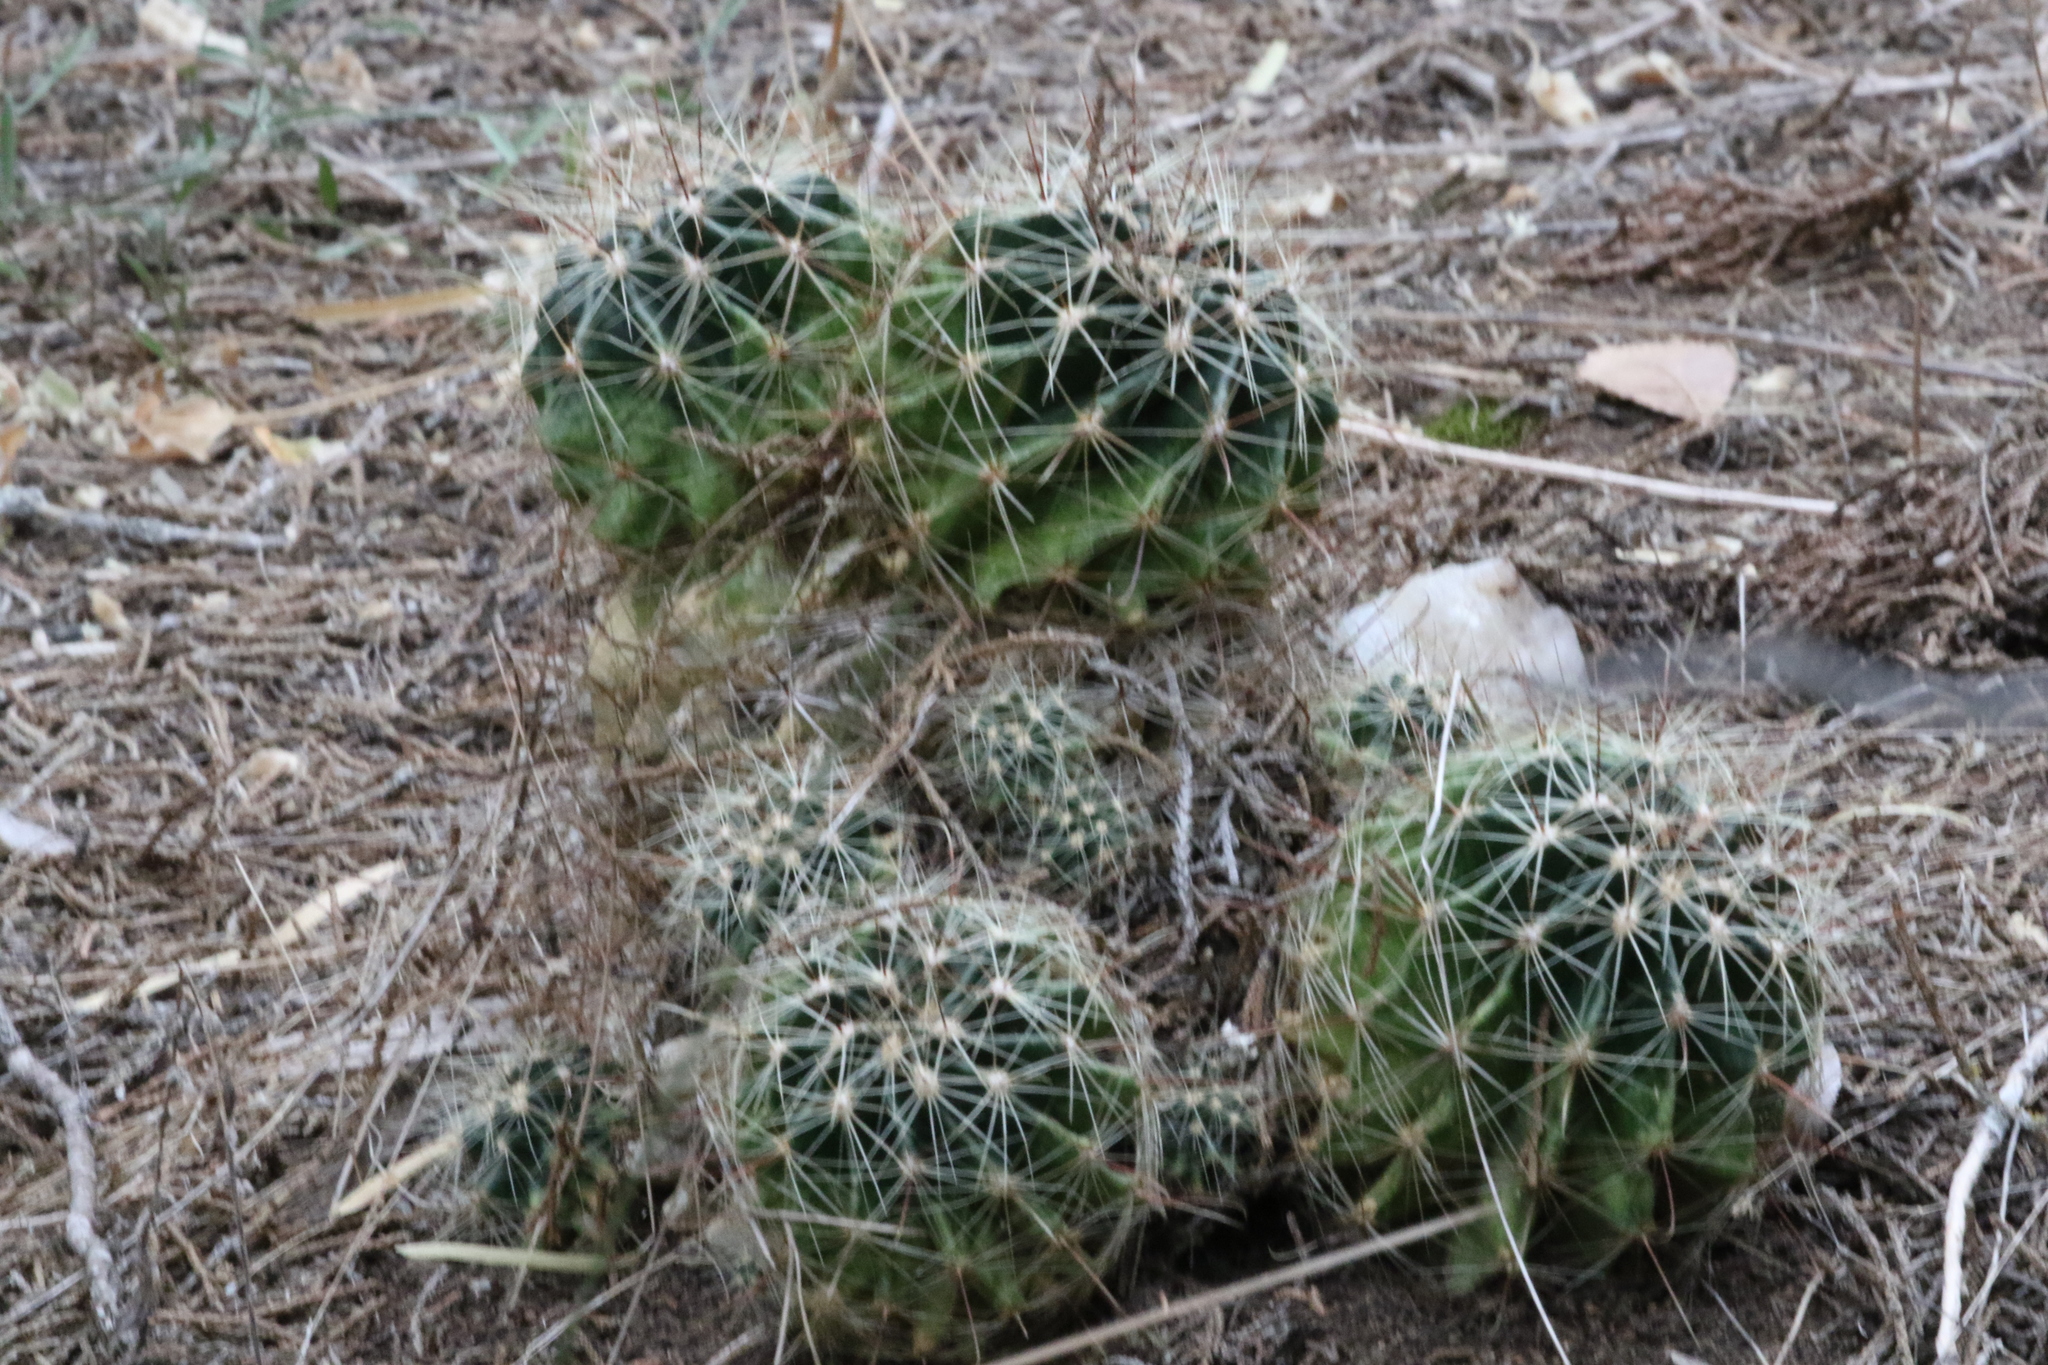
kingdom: Plantae
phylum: Tracheophyta
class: Magnoliopsida
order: Caryophyllales
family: Cactaceae
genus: Thelocactus
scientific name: Thelocactus setispinus
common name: Miniature barrel cactus
